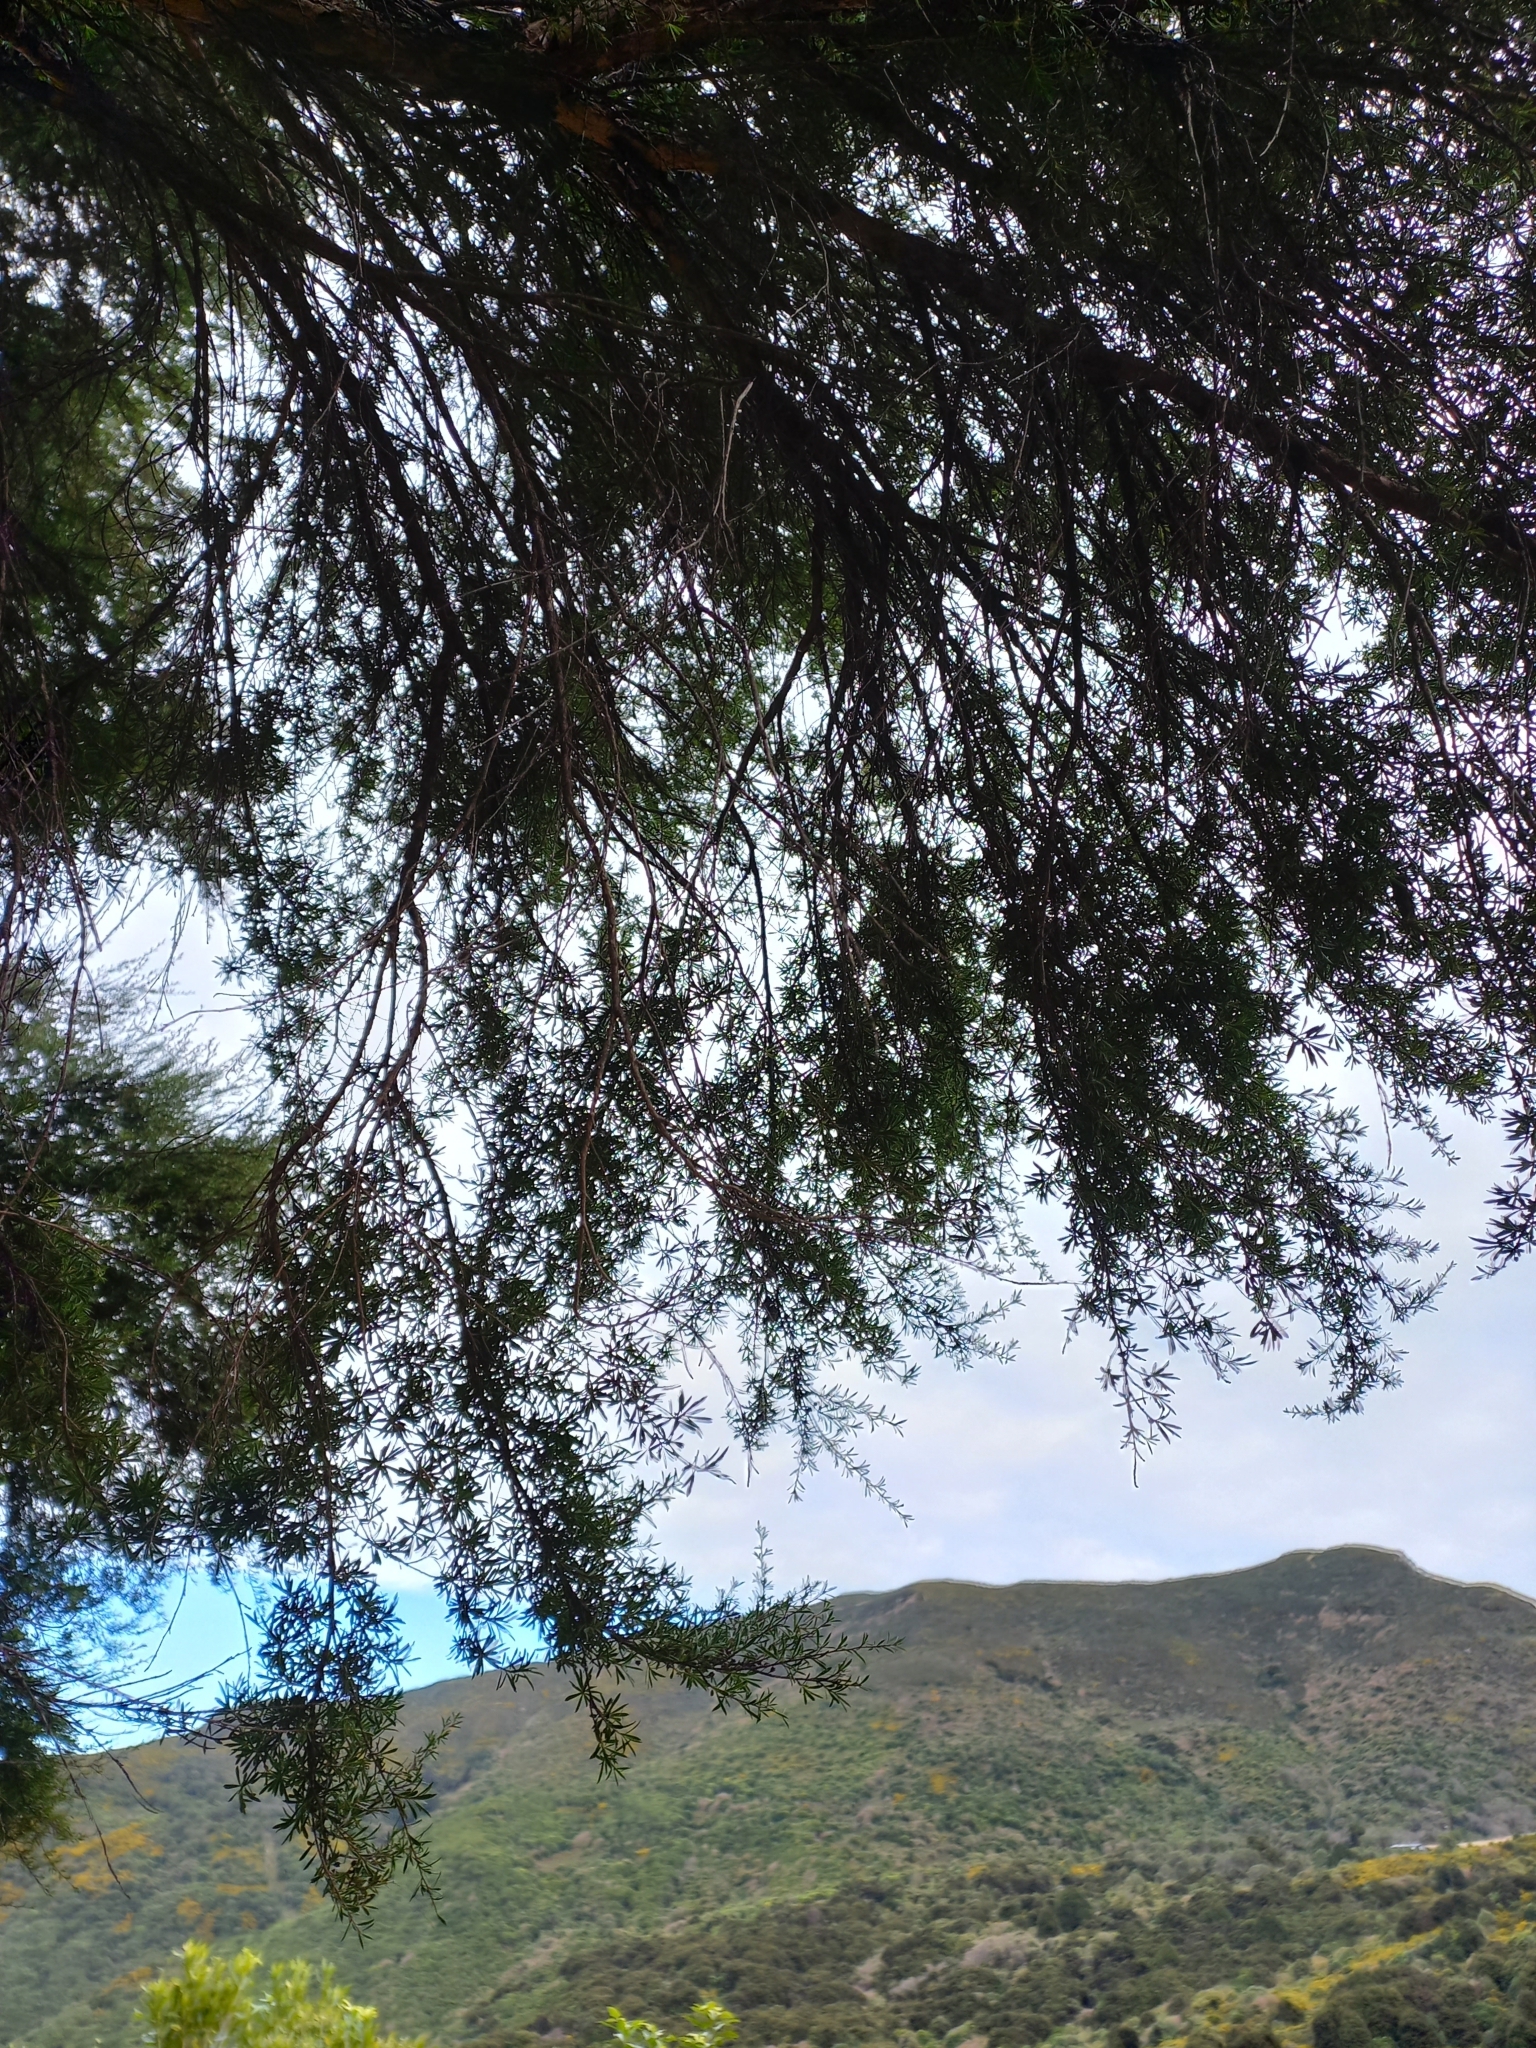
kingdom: Plantae
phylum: Tracheophyta
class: Magnoliopsida
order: Myrtales
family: Myrtaceae
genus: Kunzea
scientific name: Kunzea robusta
